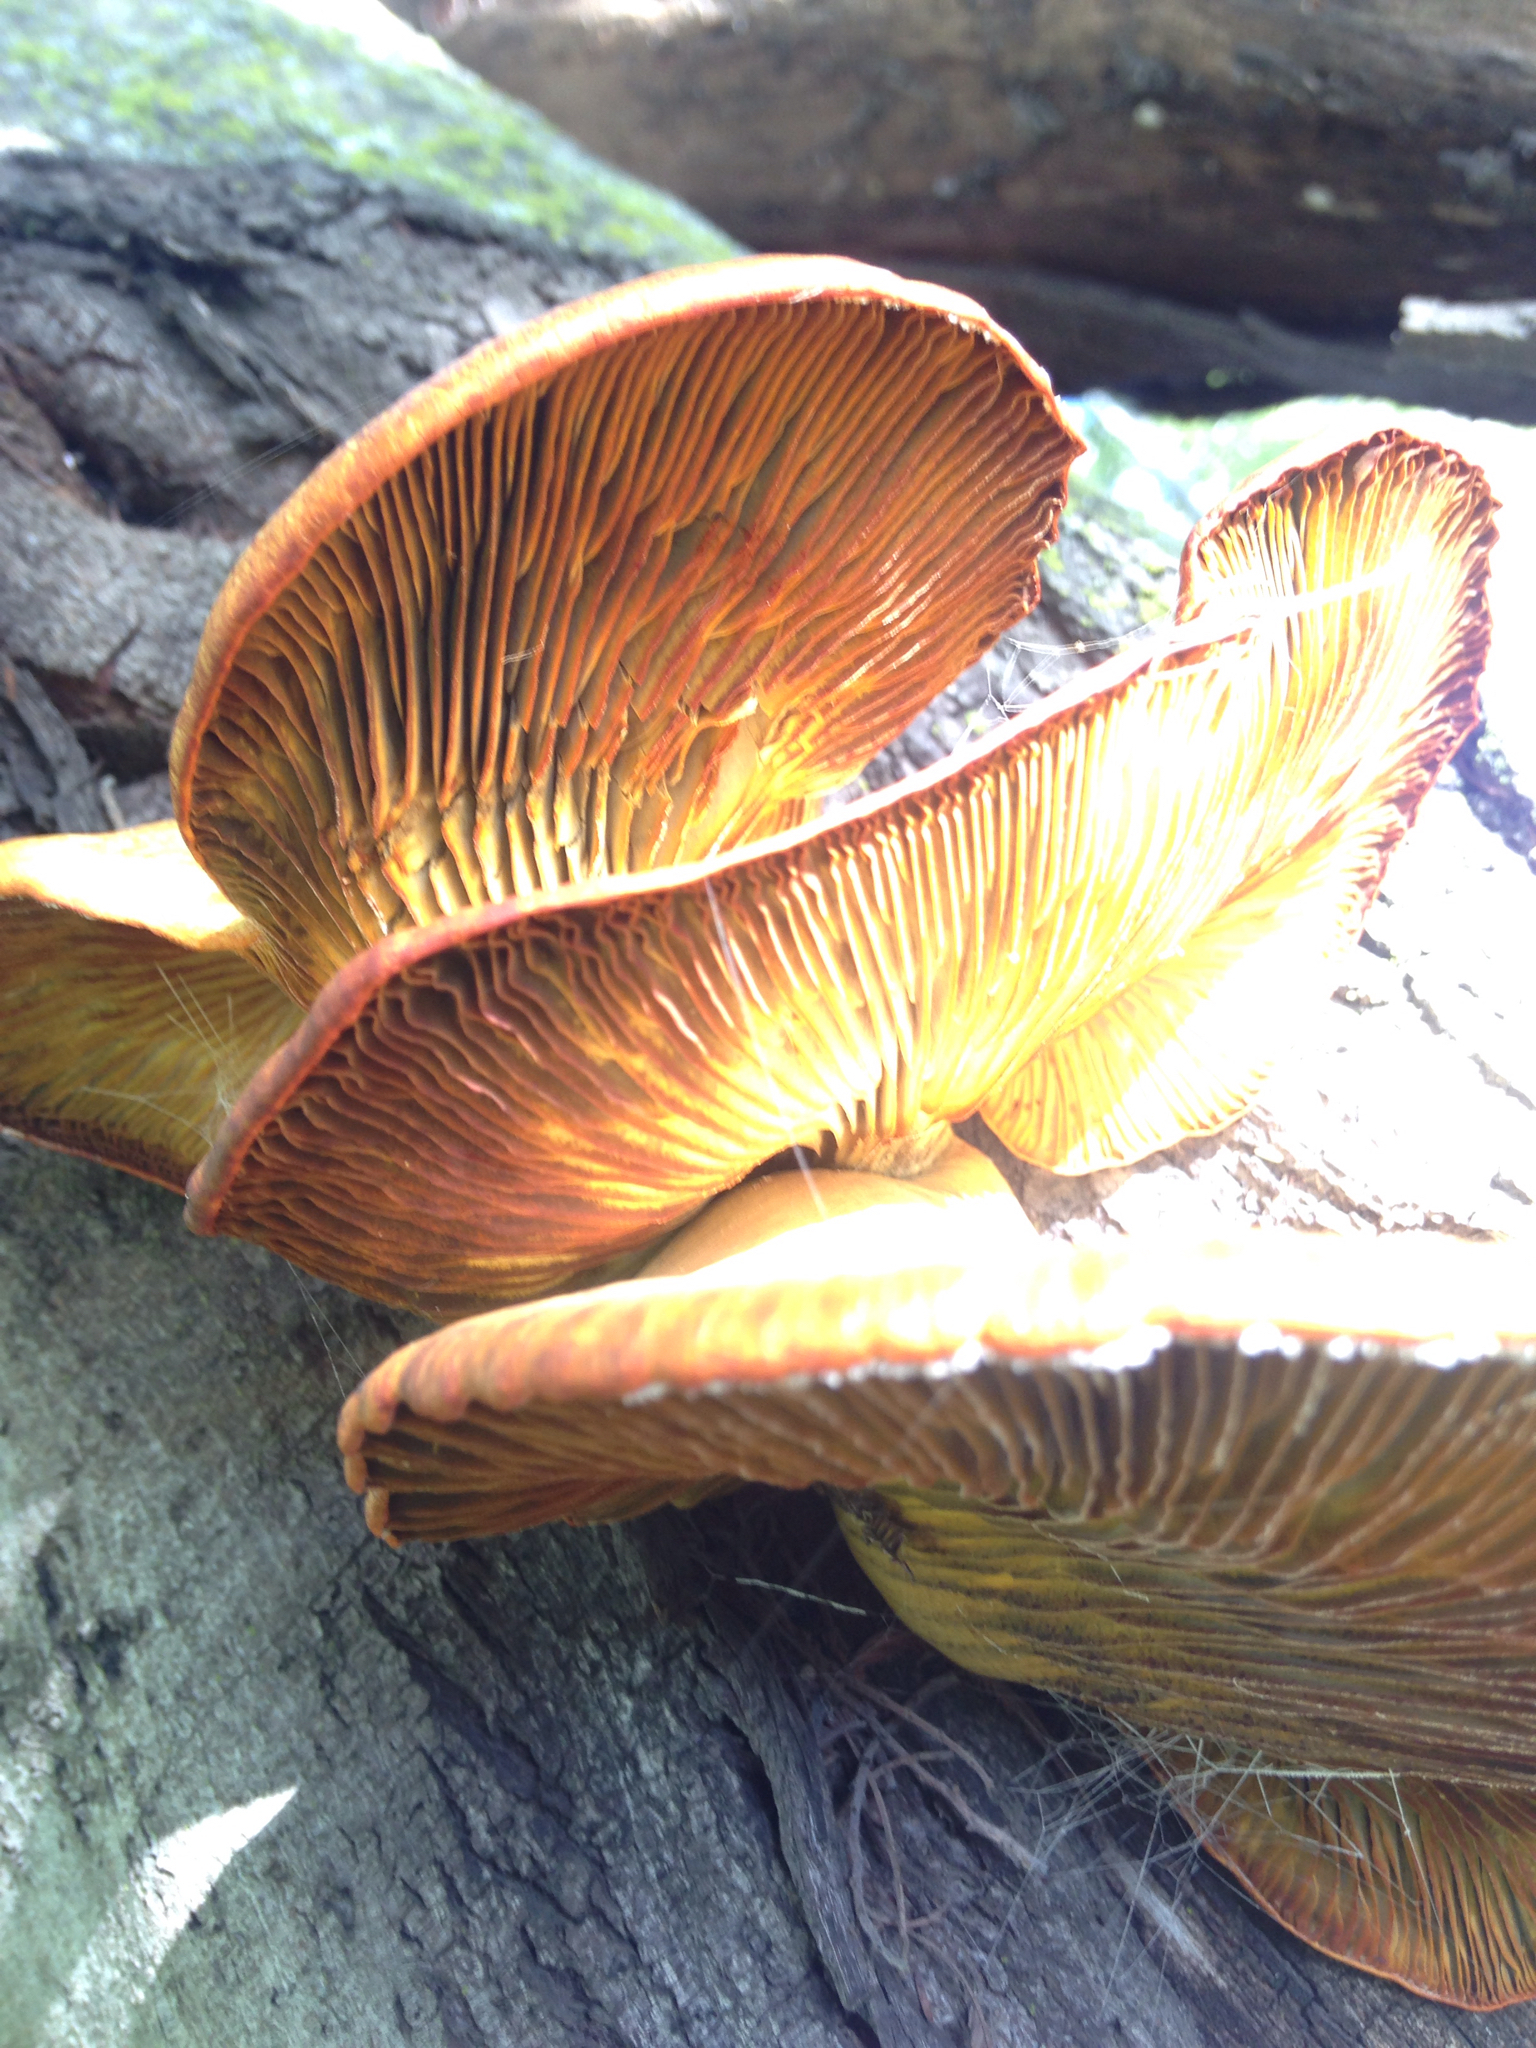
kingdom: Fungi
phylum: Basidiomycota
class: Agaricomycetes
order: Agaricales
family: Omphalotaceae
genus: Omphalotus
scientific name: Omphalotus olivascens
